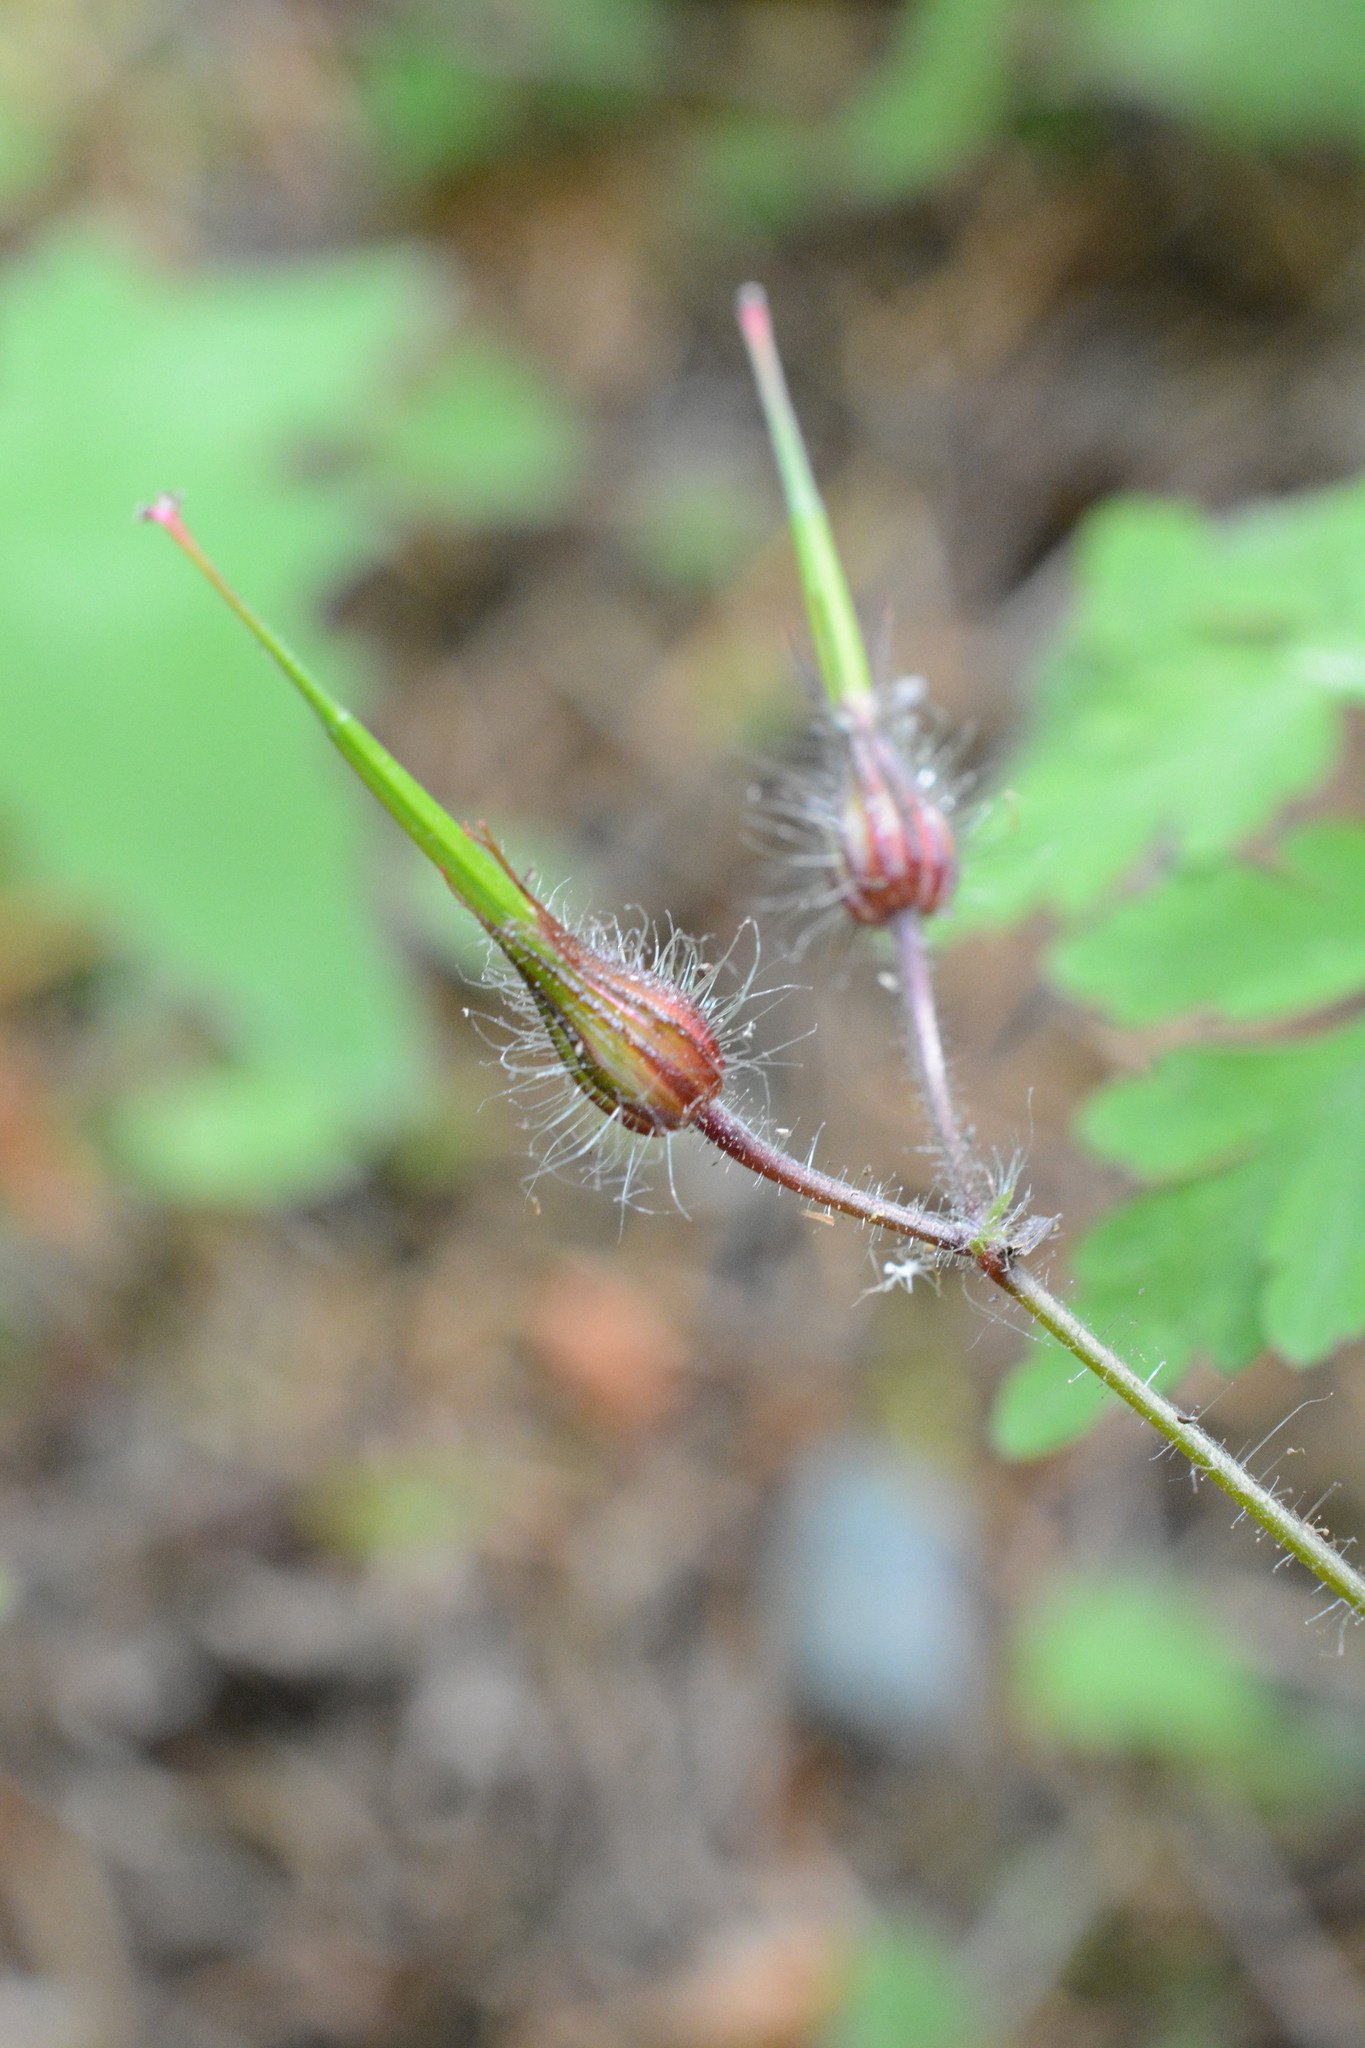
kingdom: Plantae
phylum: Tracheophyta
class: Magnoliopsida
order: Geraniales
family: Geraniaceae
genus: Geranium
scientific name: Geranium robertianum
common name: Herb-robert
